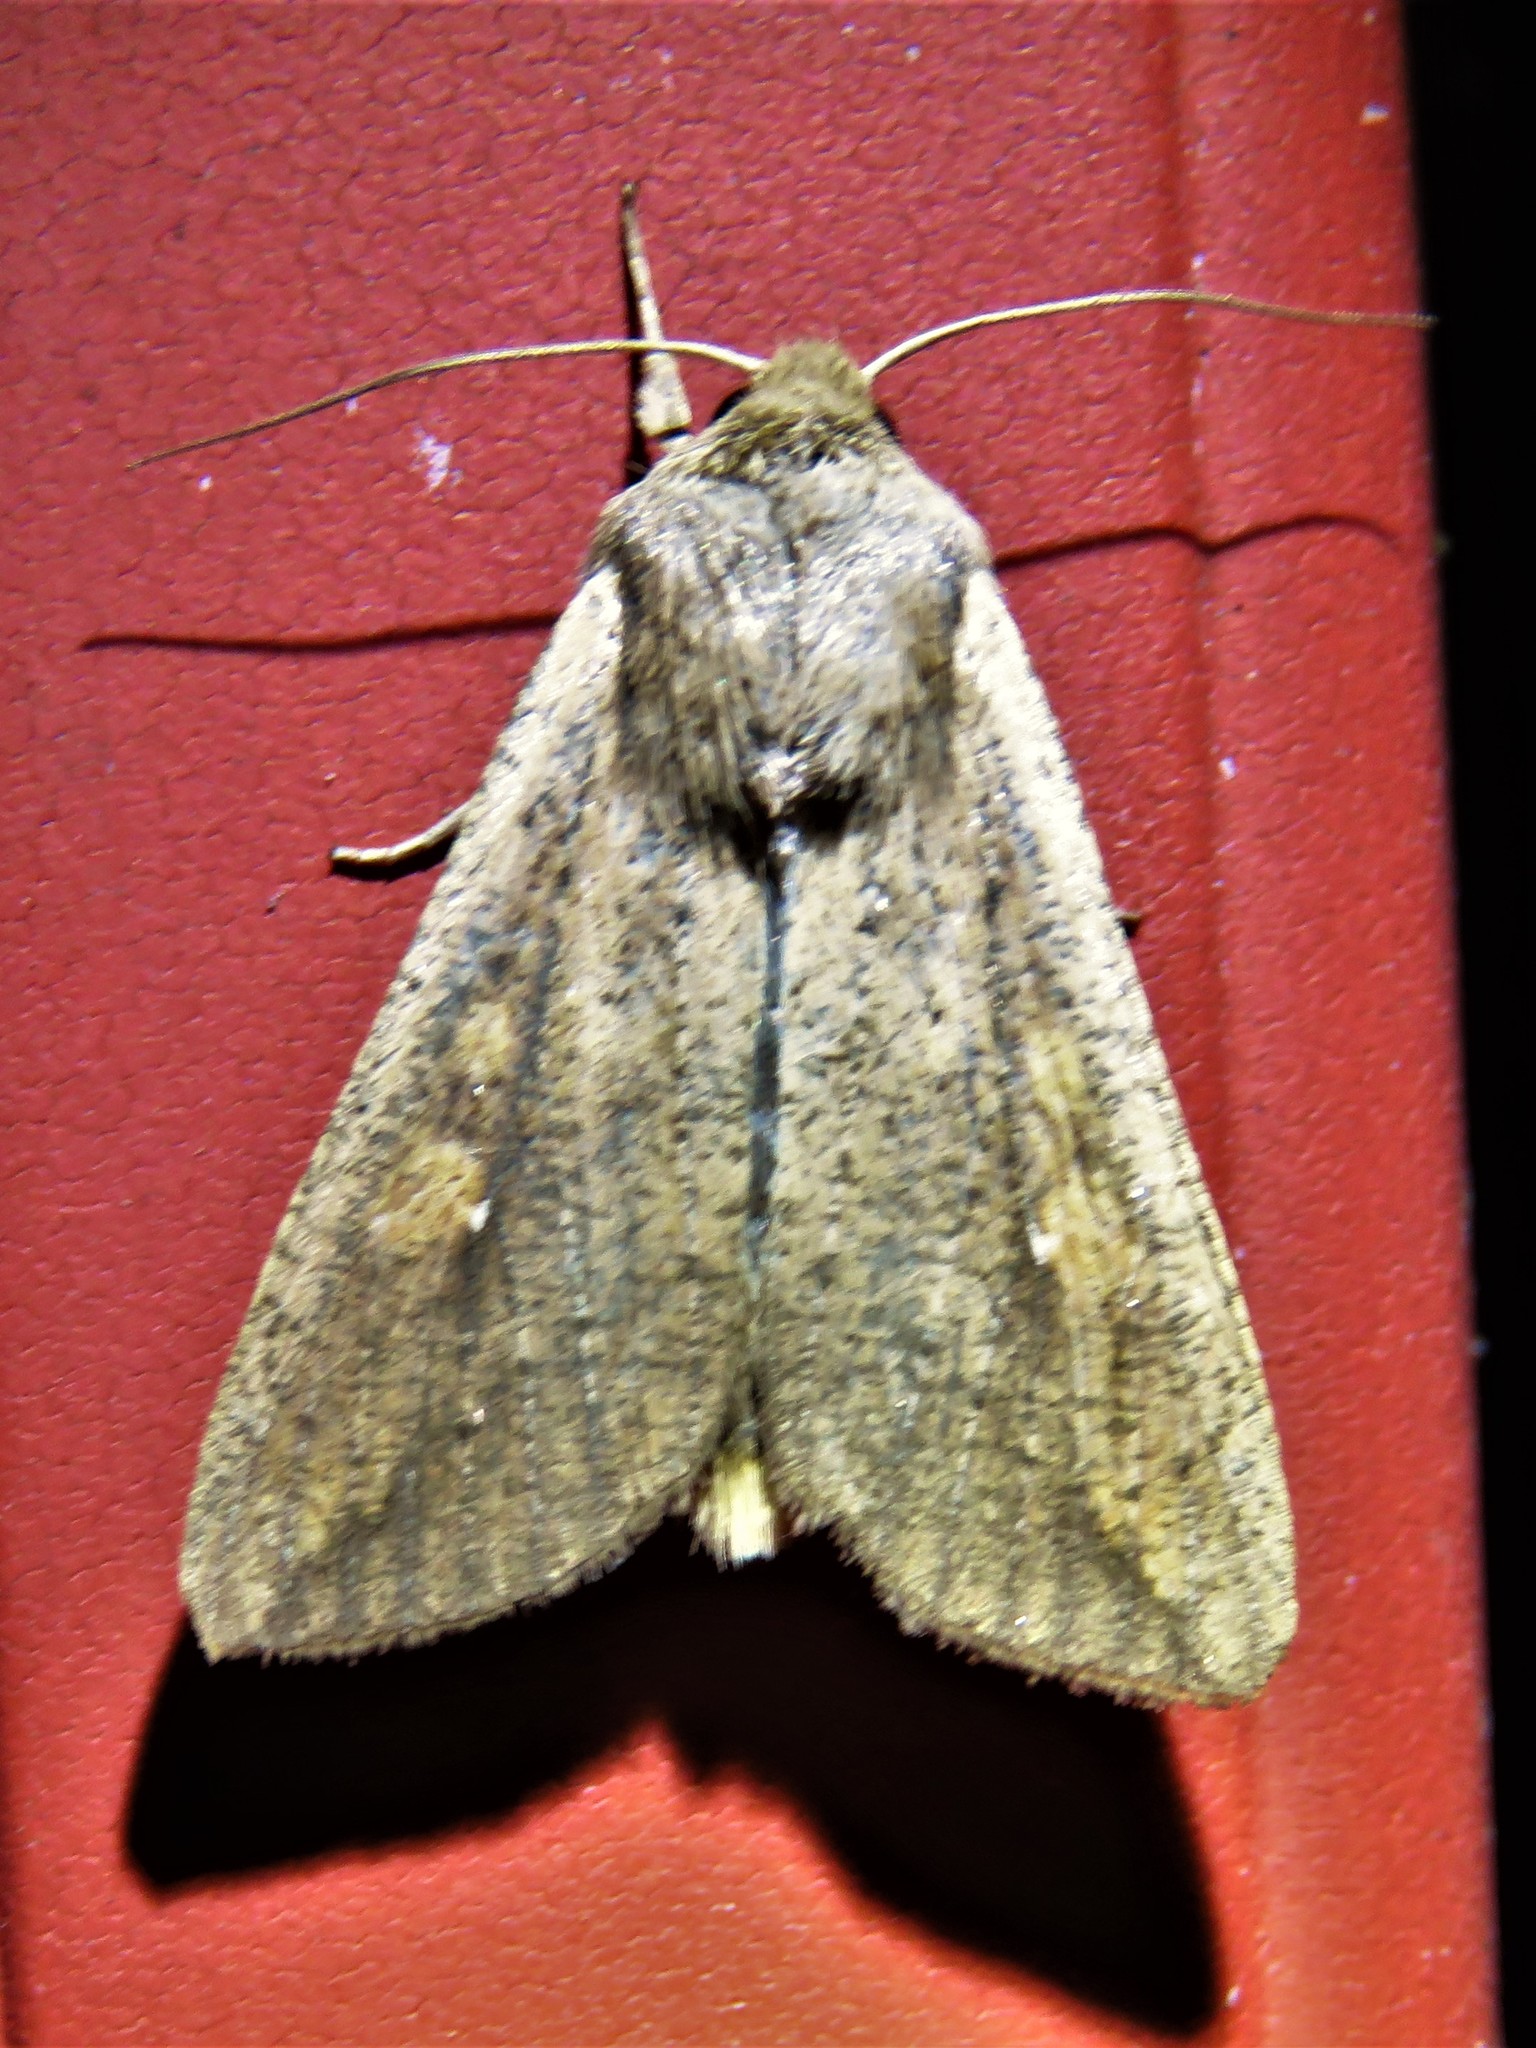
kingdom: Animalia
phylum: Arthropoda
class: Insecta
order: Lepidoptera
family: Noctuidae
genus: Mythimna
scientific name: Mythimna unipuncta
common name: White-speck
